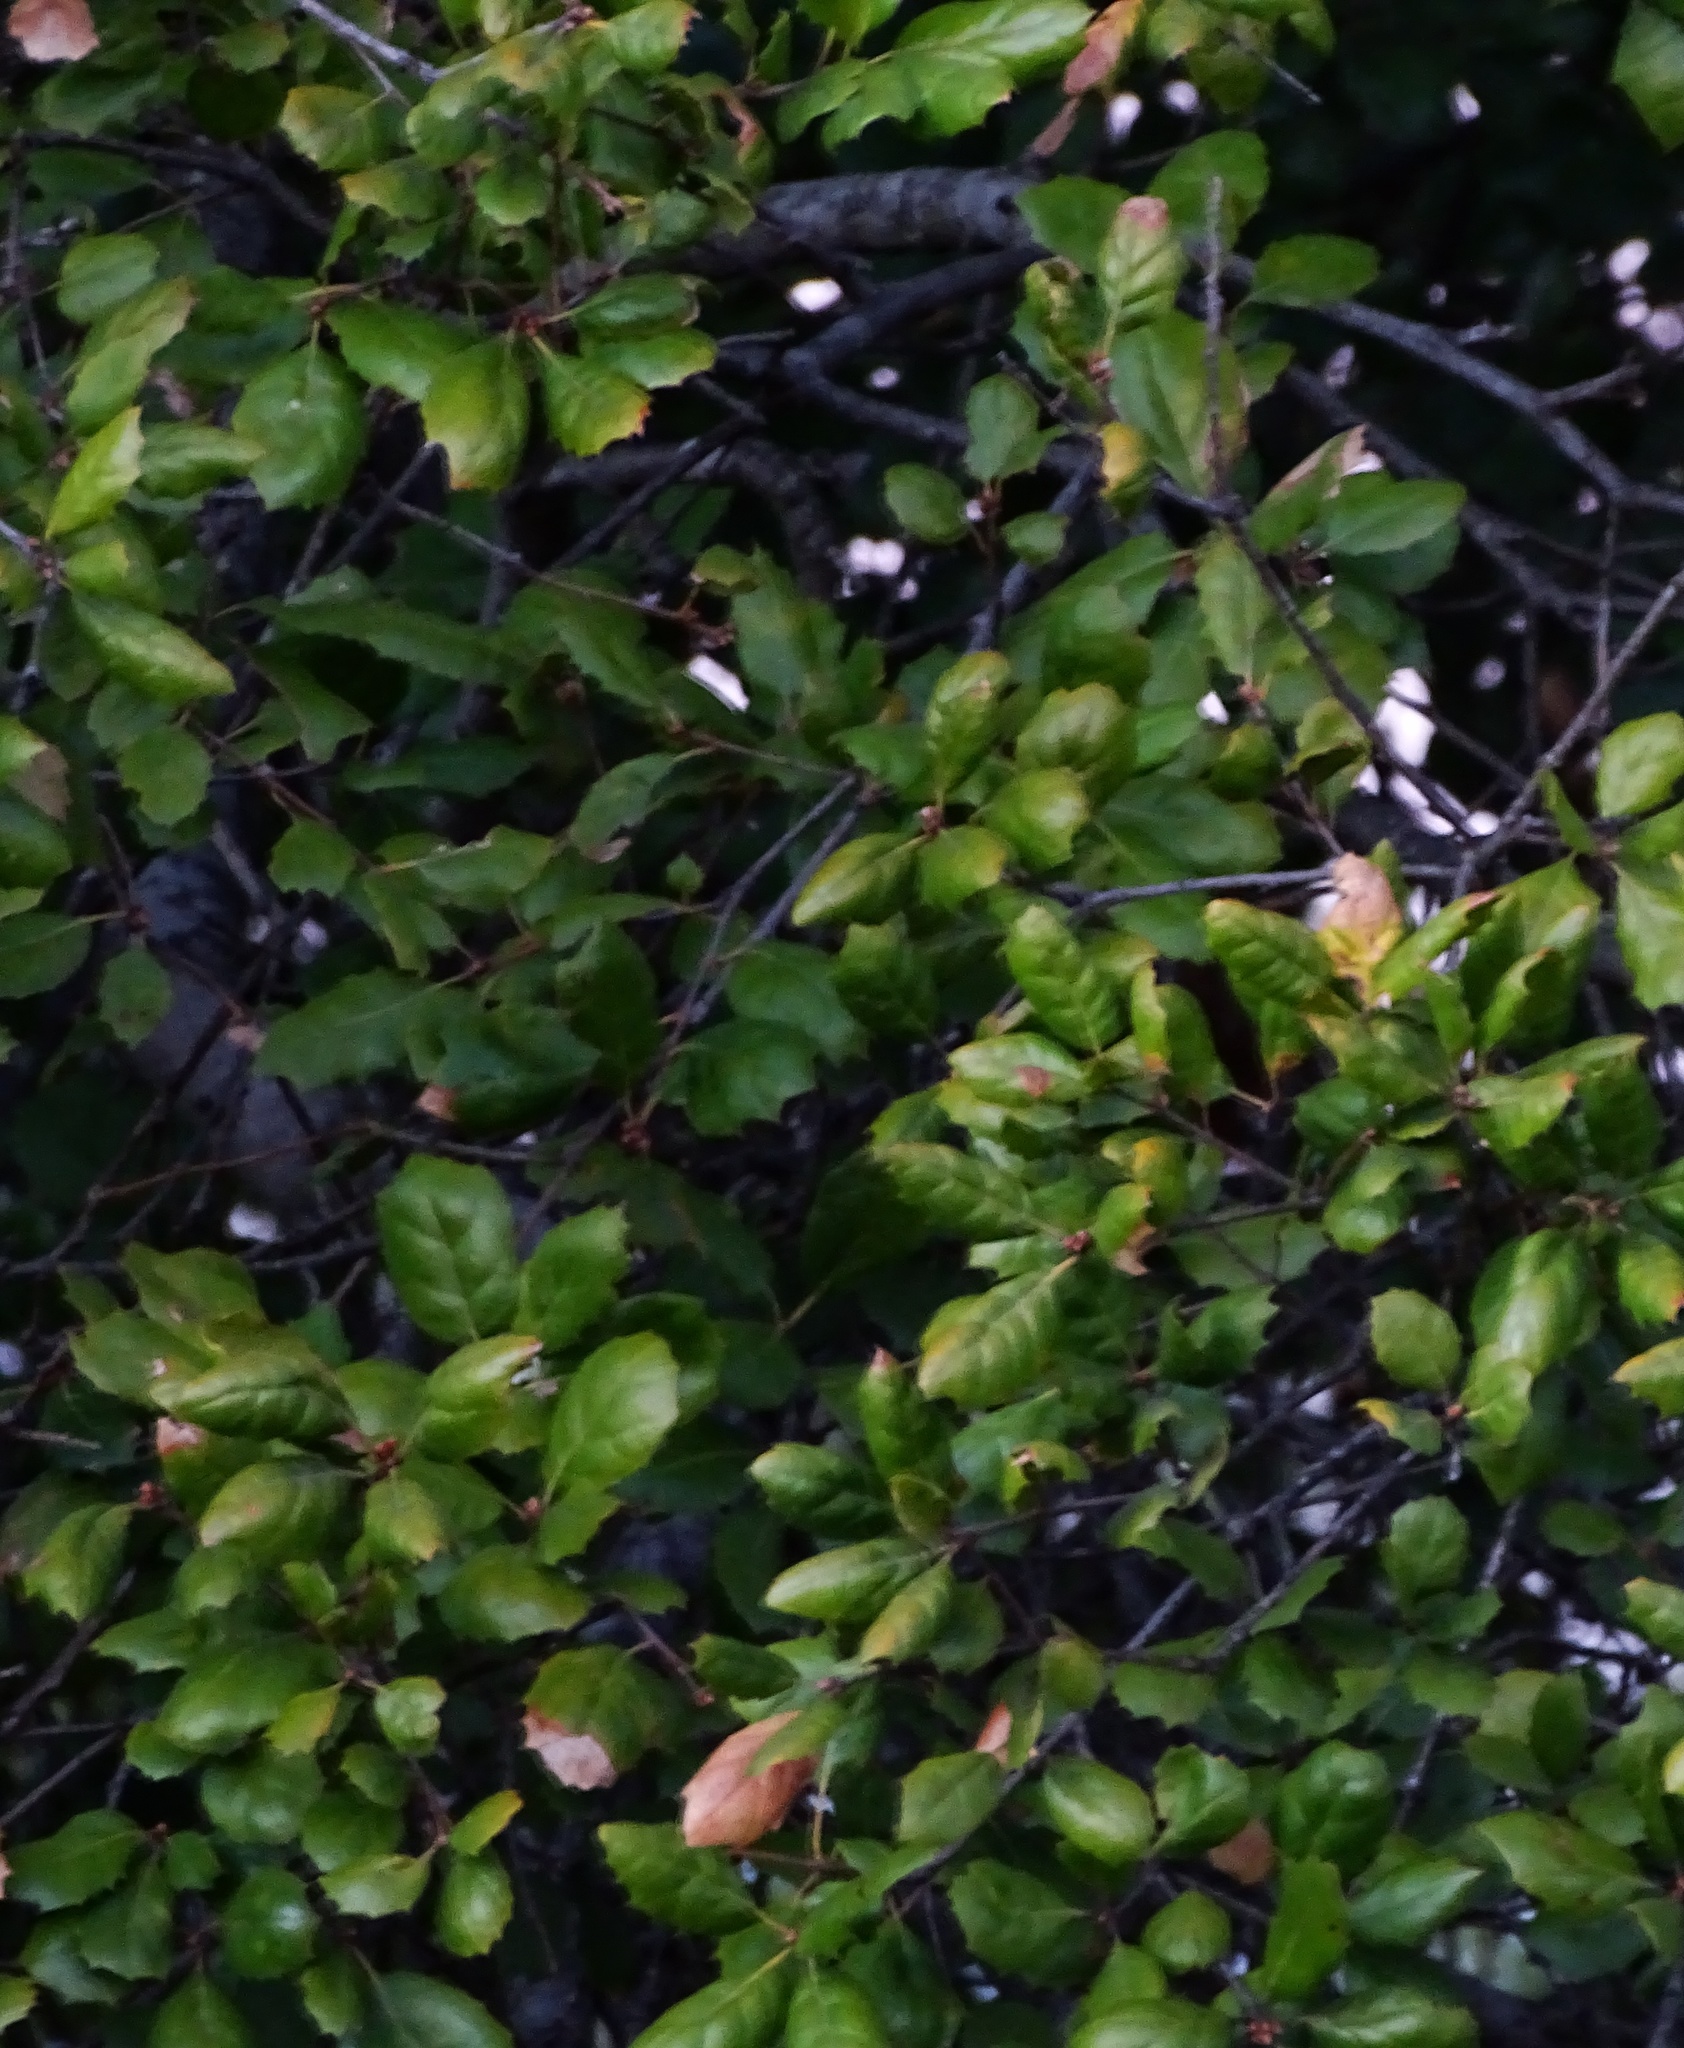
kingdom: Plantae
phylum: Tracheophyta
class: Magnoliopsida
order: Fagales
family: Fagaceae
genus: Quercus
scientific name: Quercus agrifolia
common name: California live oak
